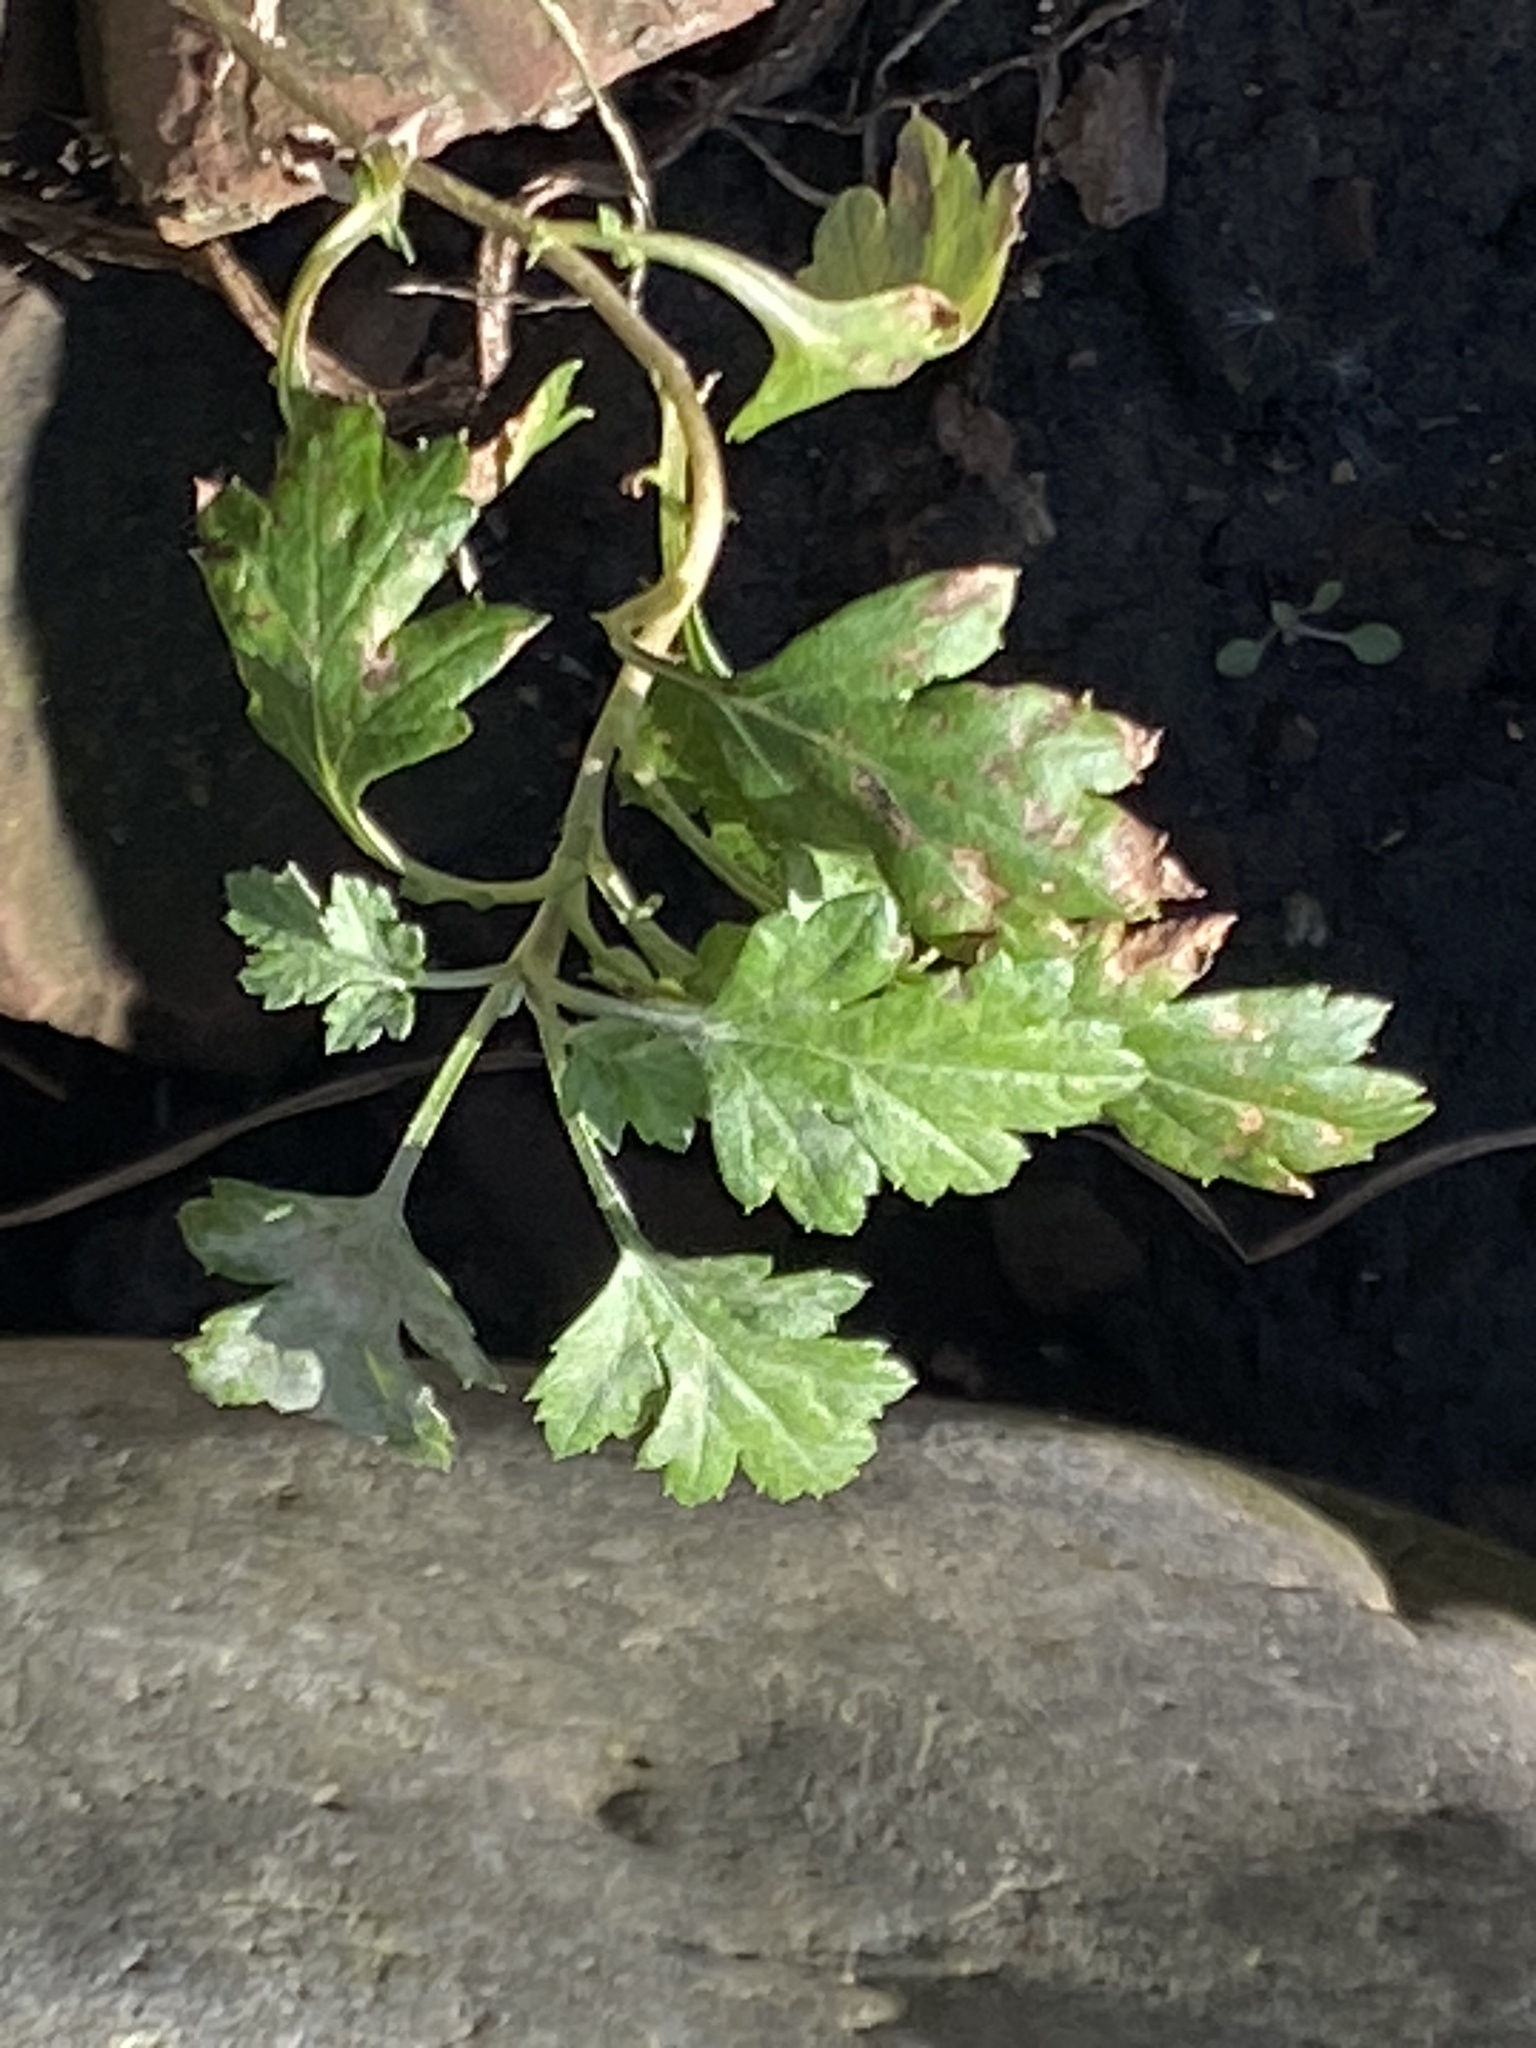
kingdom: Plantae
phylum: Tracheophyta
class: Magnoliopsida
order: Asterales
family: Asteraceae
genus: Artemisia
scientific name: Artemisia vulgaris
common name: Mugwort
